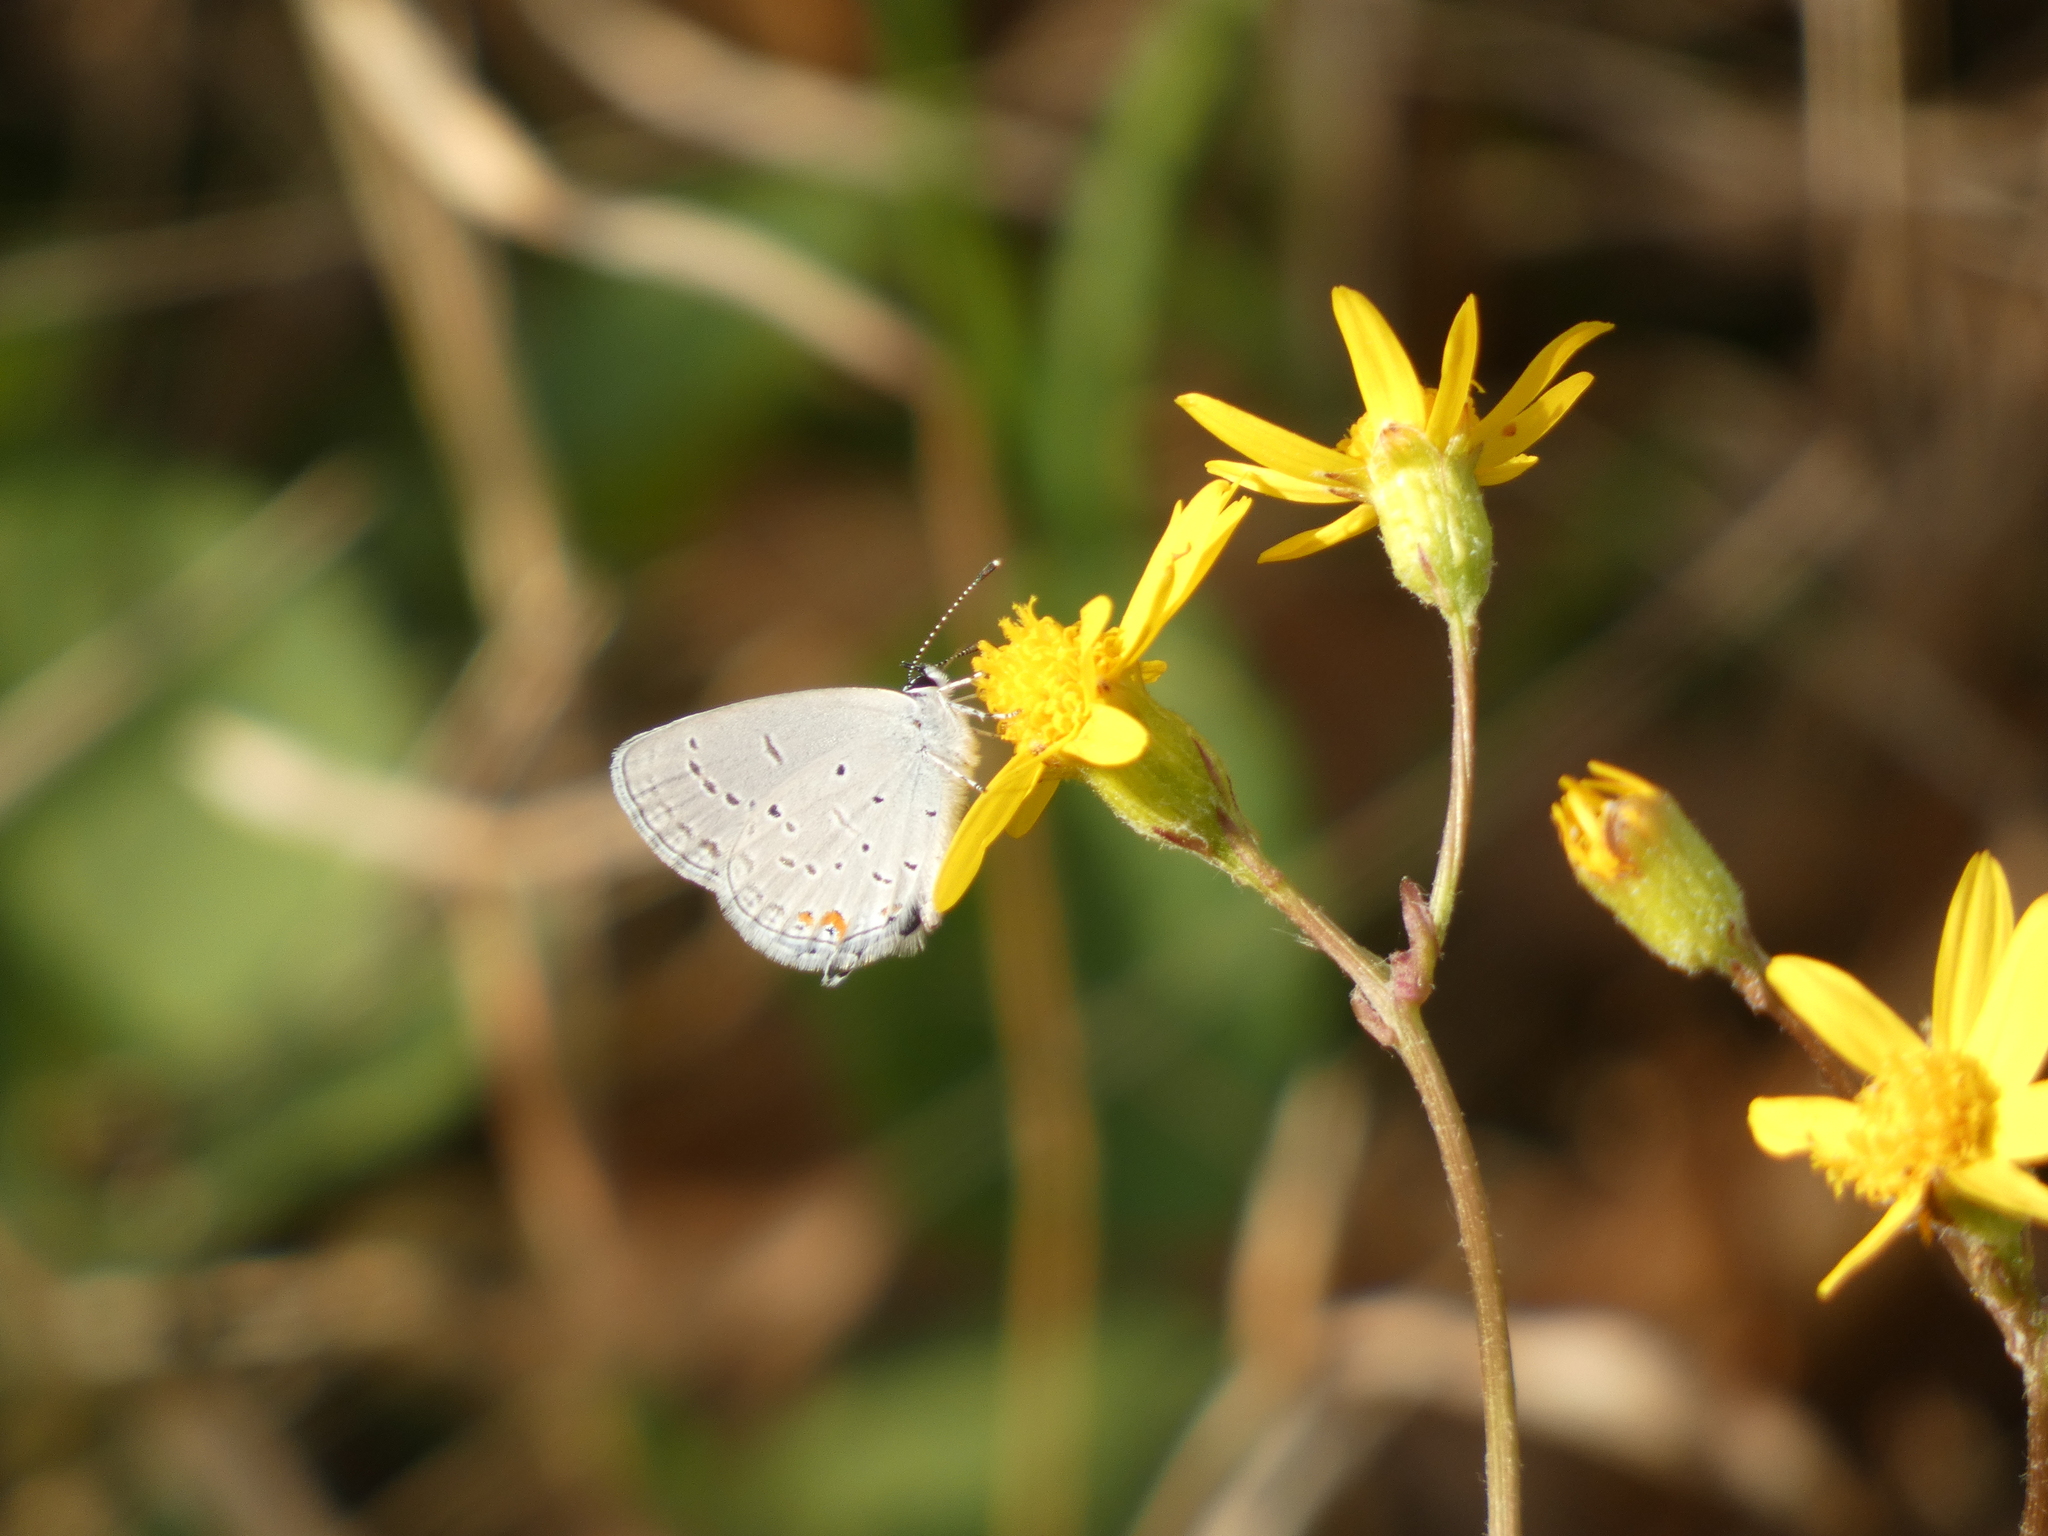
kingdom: Animalia
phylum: Arthropoda
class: Insecta
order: Lepidoptera
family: Lycaenidae
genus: Elkalyce
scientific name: Elkalyce comyntas
